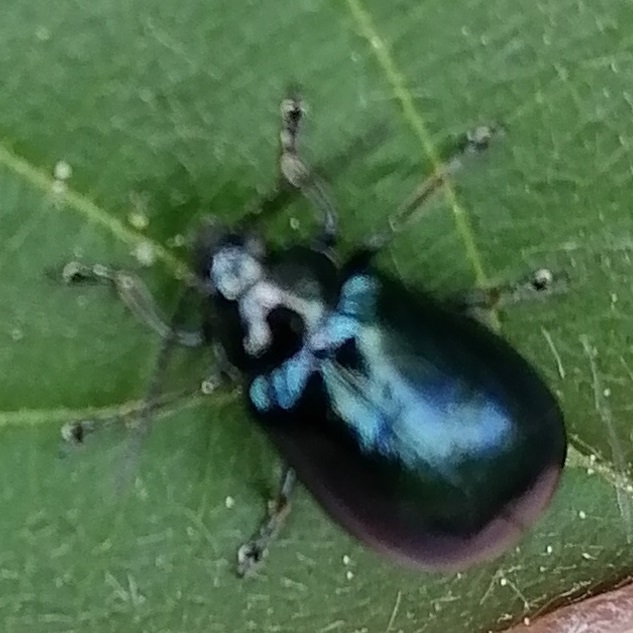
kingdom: Animalia
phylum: Arthropoda
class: Insecta
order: Coleoptera
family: Chrysomelidae
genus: Agelastica
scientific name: Agelastica alni
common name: Alder leaf beetle
